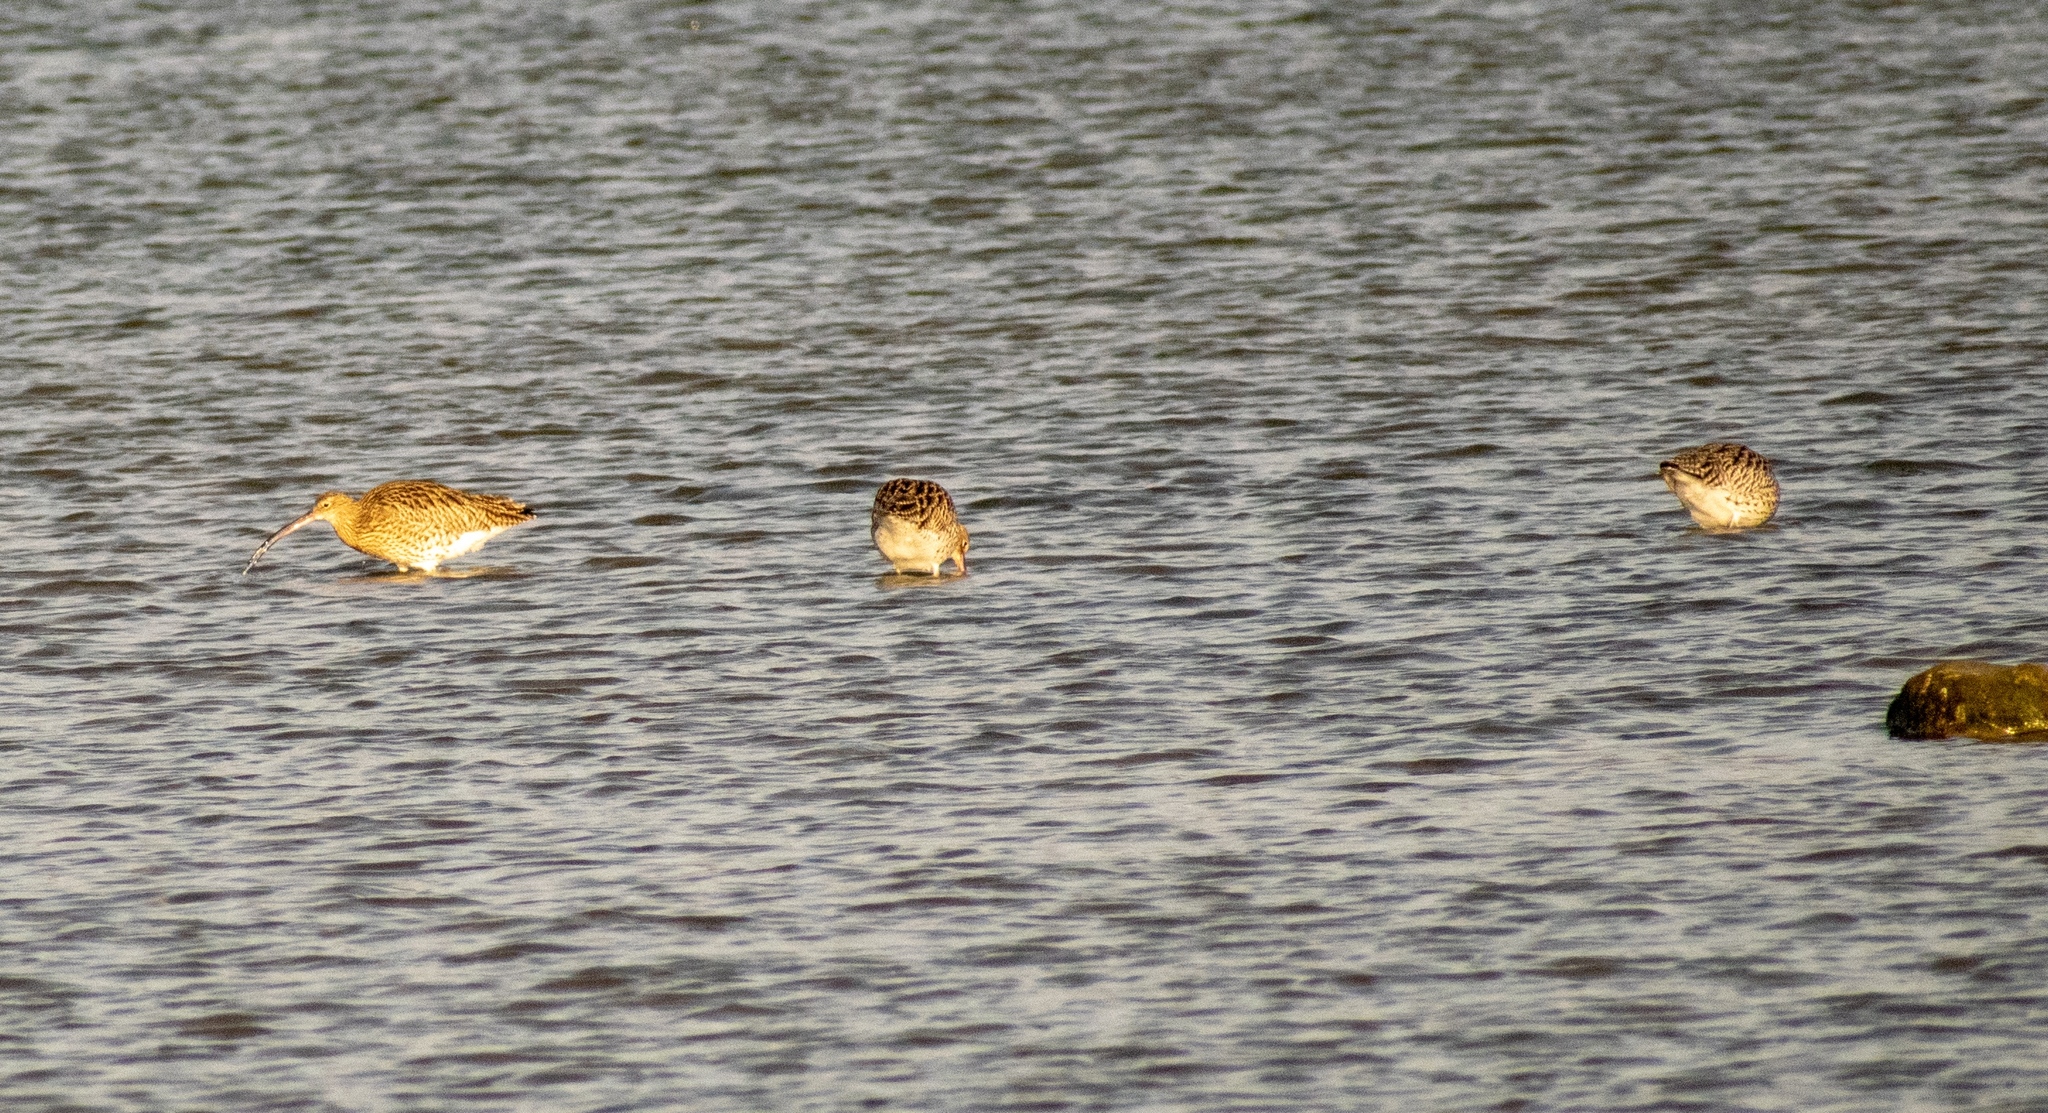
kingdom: Animalia
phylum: Chordata
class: Aves
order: Charadriiformes
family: Scolopacidae
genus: Numenius
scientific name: Numenius arquata
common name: Eurasian curlew
